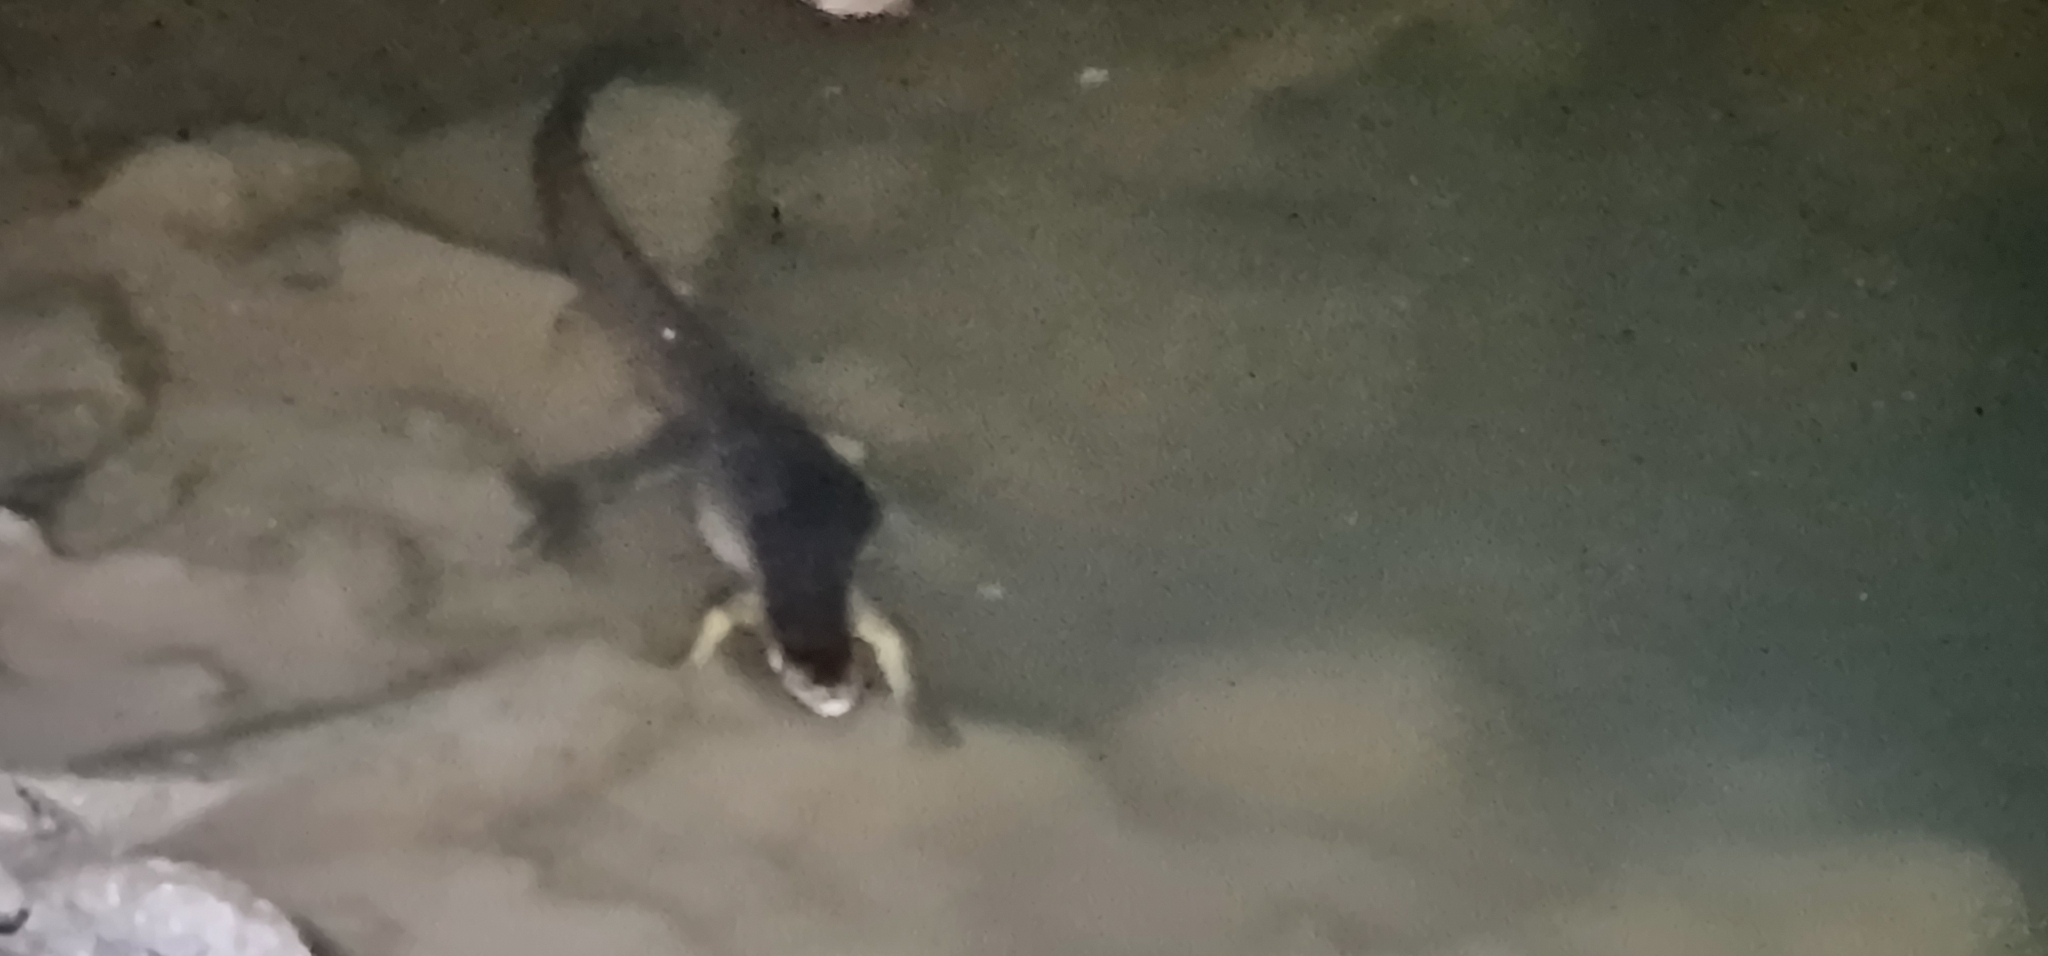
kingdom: Animalia
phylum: Chordata
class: Squamata
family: Varanidae
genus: Varanus
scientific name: Varanus mertensi
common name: Mertens's water monitor
